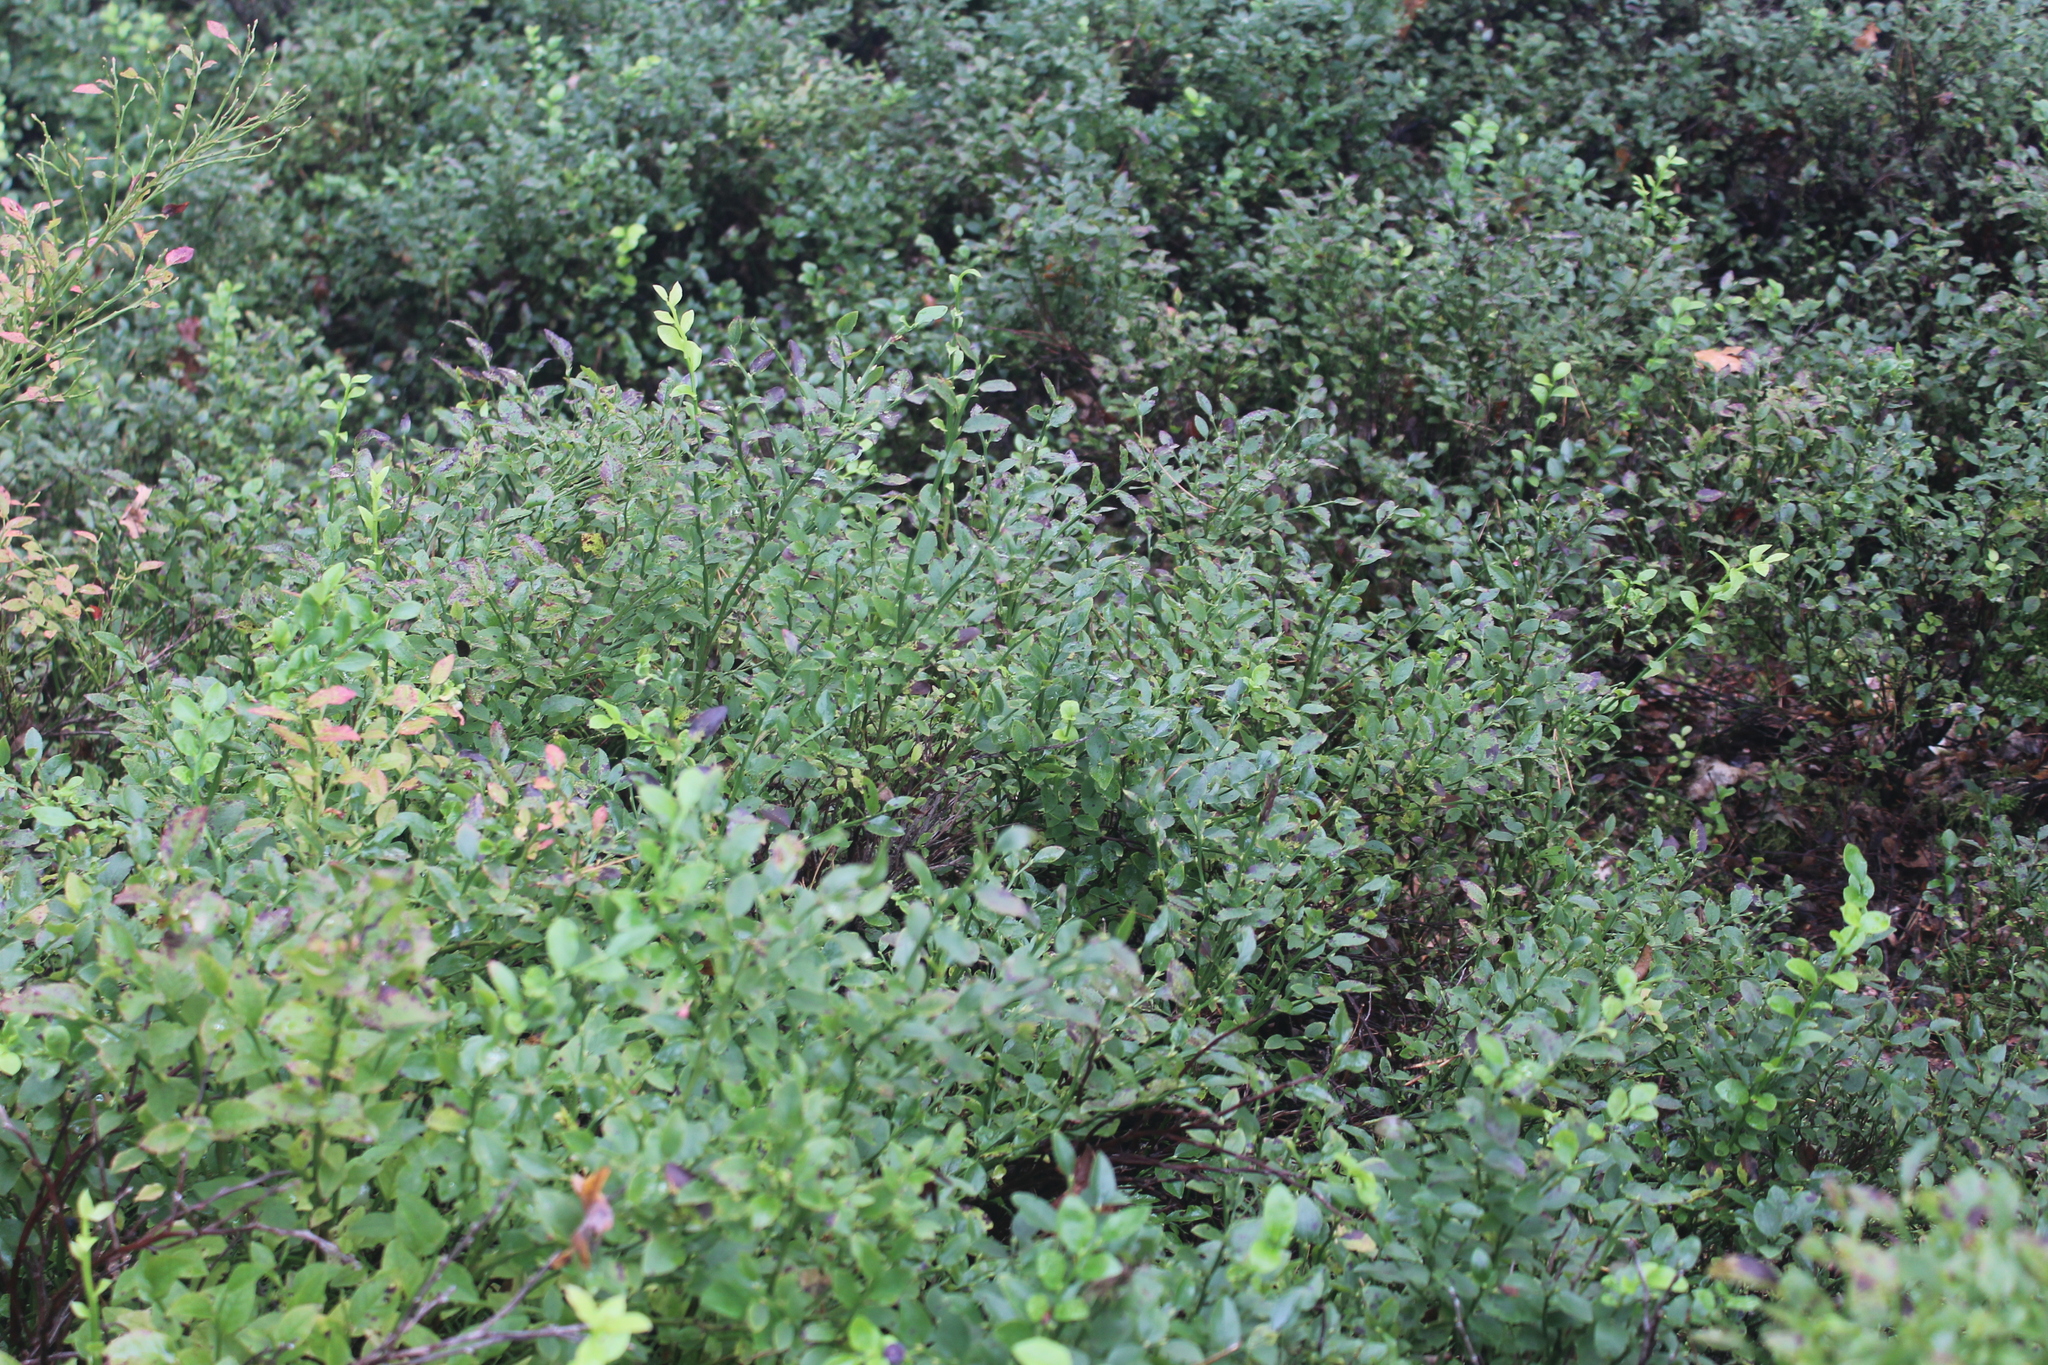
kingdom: Plantae
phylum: Tracheophyta
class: Magnoliopsida
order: Ericales
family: Ericaceae
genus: Vaccinium
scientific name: Vaccinium myrtillus
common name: Bilberry
